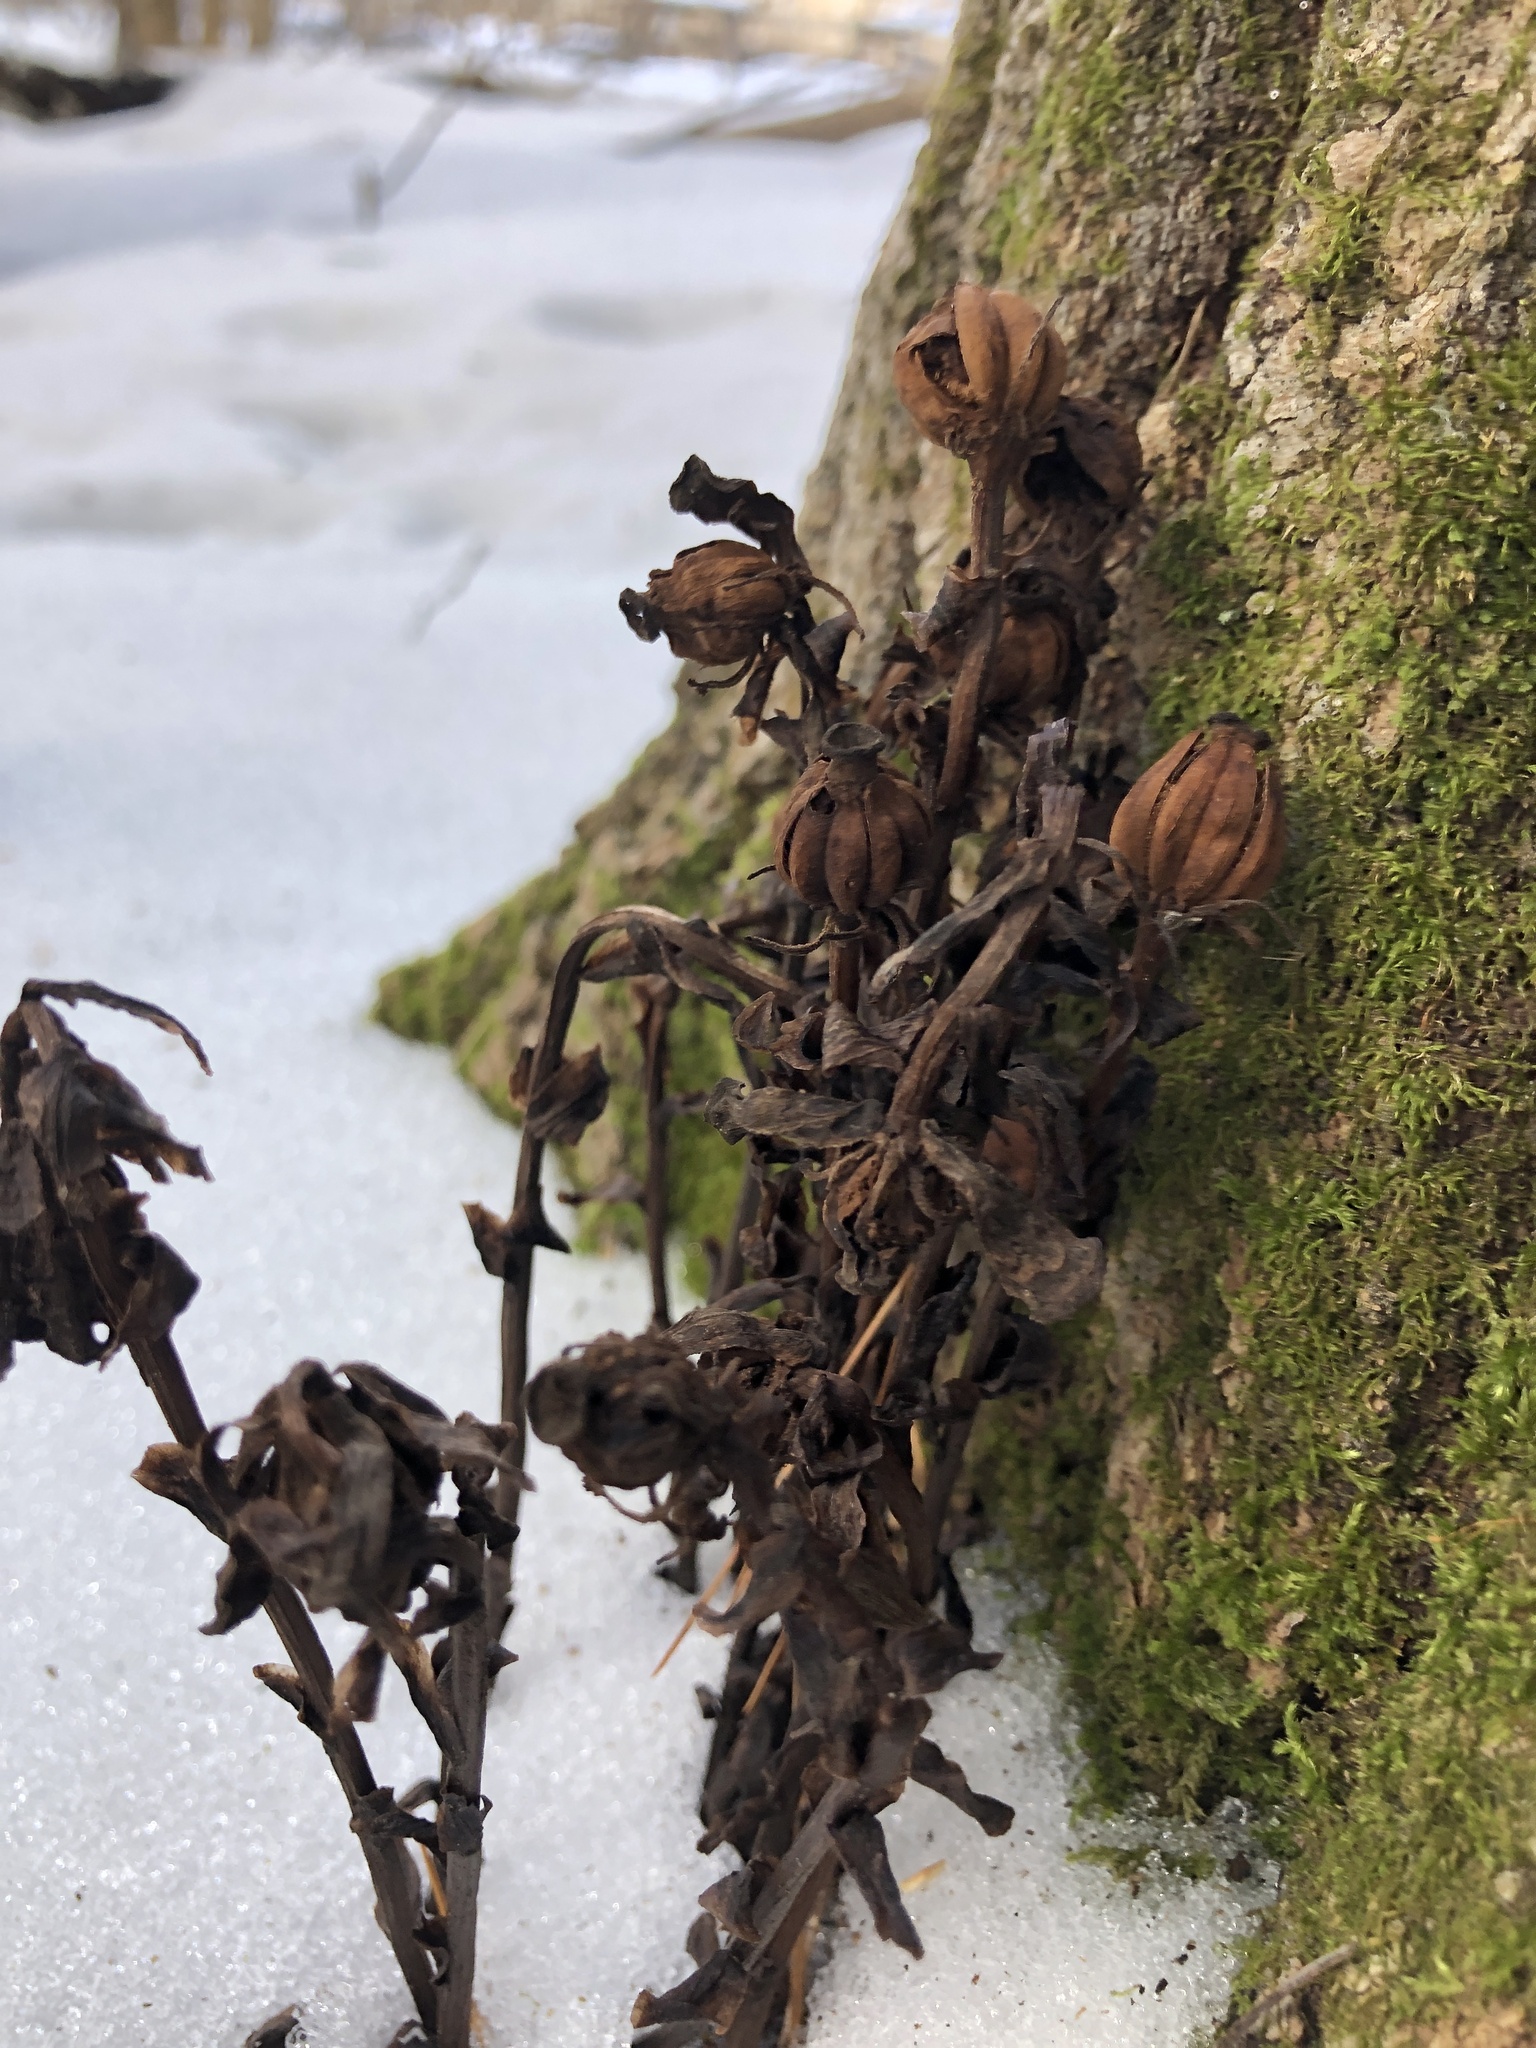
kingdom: Plantae
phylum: Tracheophyta
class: Magnoliopsida
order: Ericales
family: Ericaceae
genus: Monotropa
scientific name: Monotropa uniflora
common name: Convulsion root
